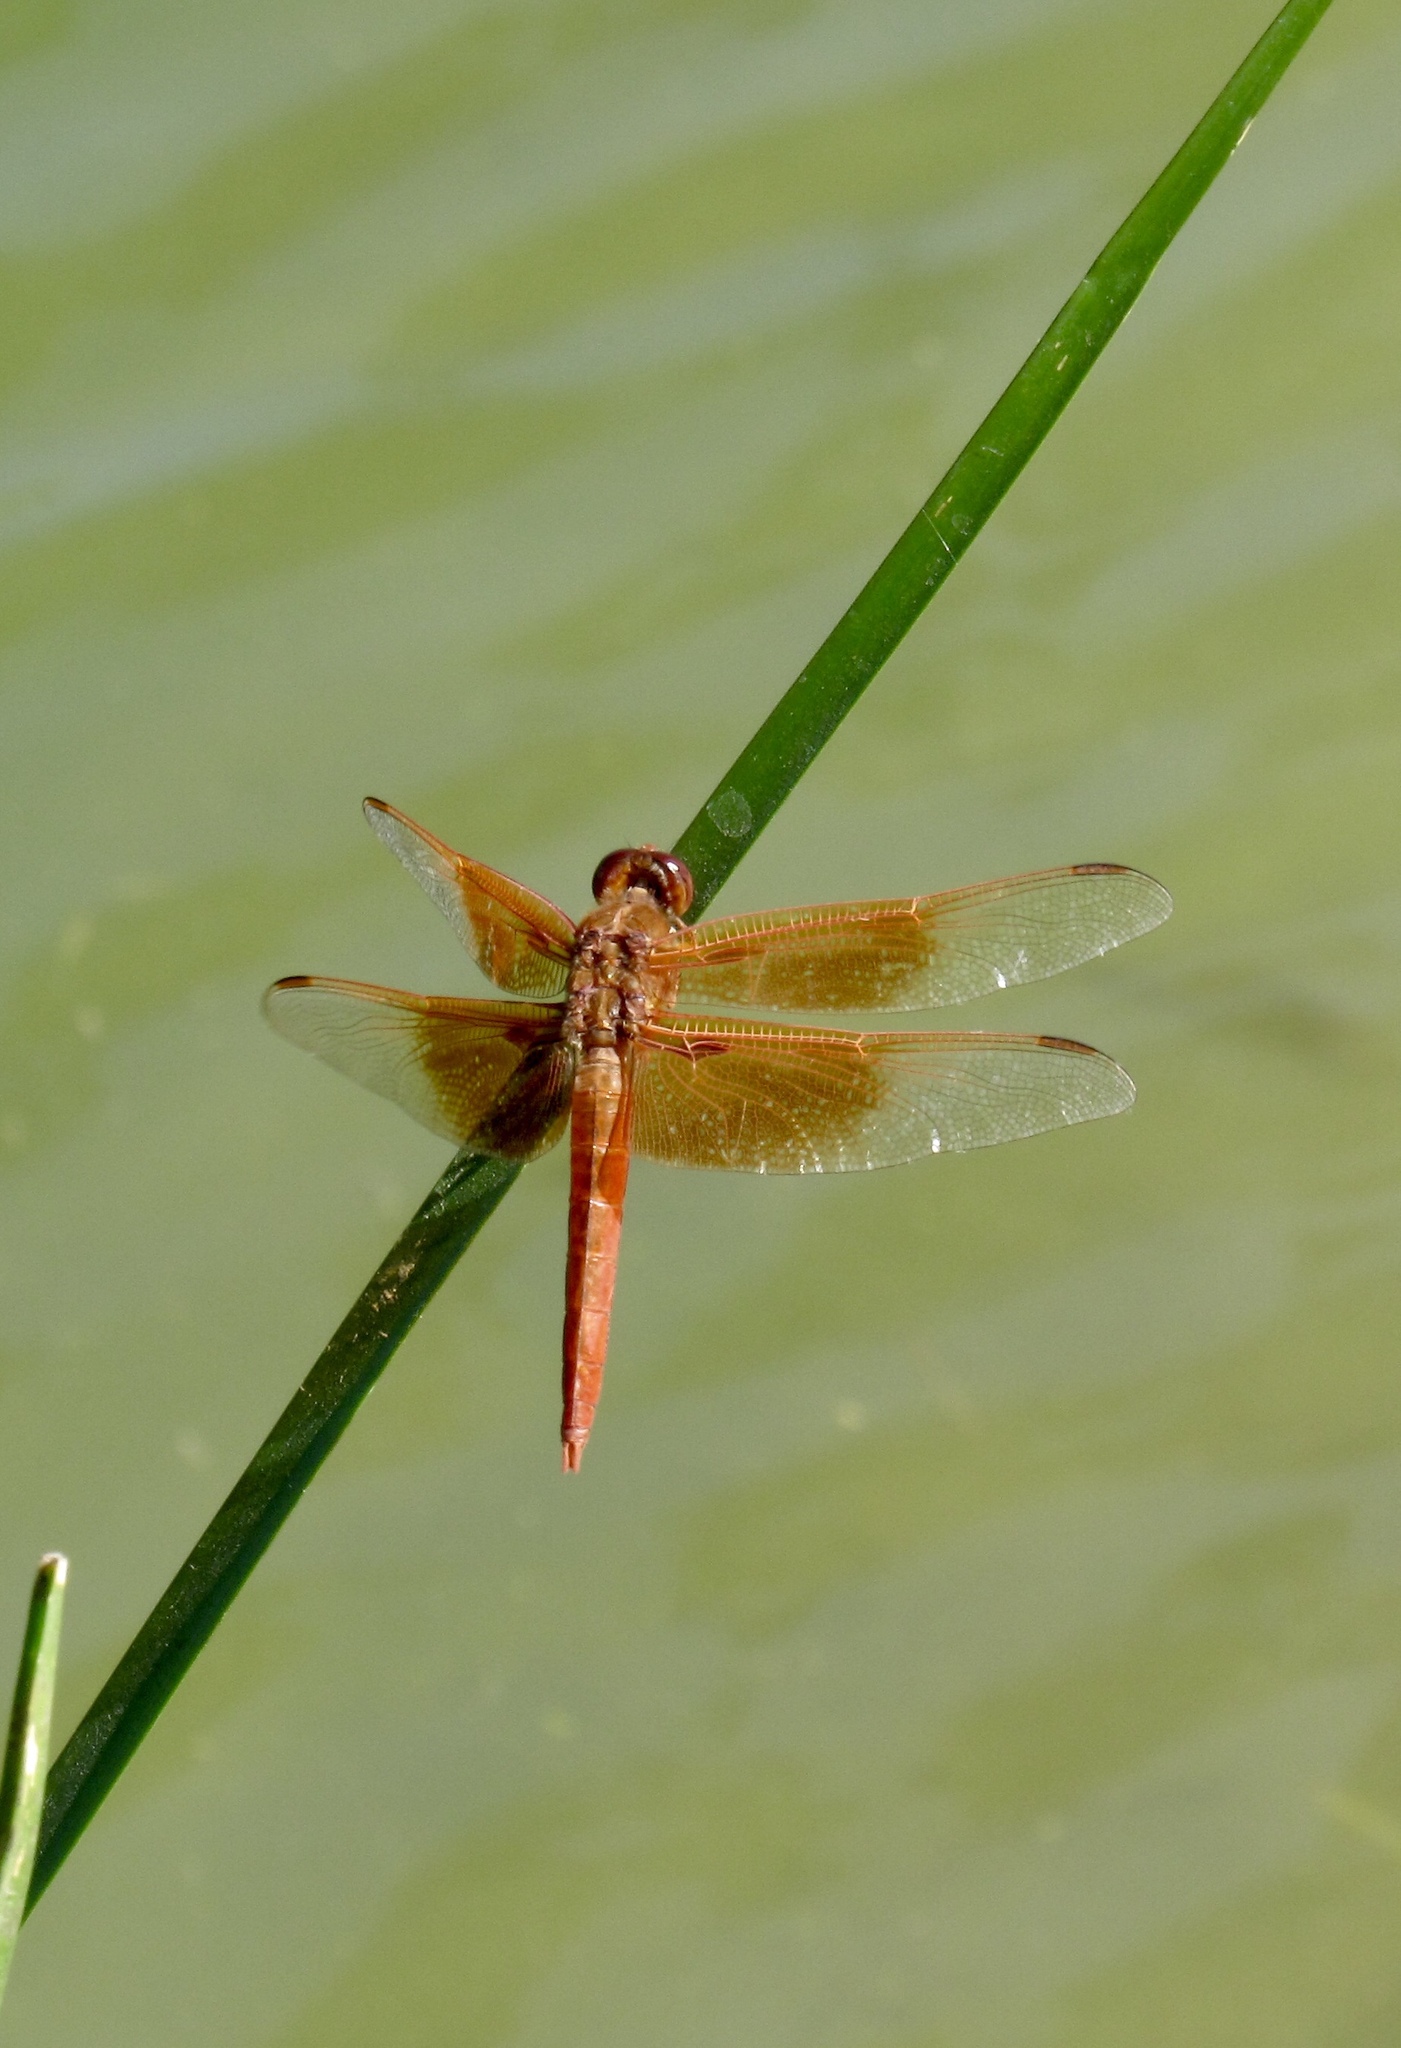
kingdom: Animalia
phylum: Arthropoda
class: Insecta
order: Odonata
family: Libellulidae
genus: Libellula
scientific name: Libellula saturata
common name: Flame skimmer
